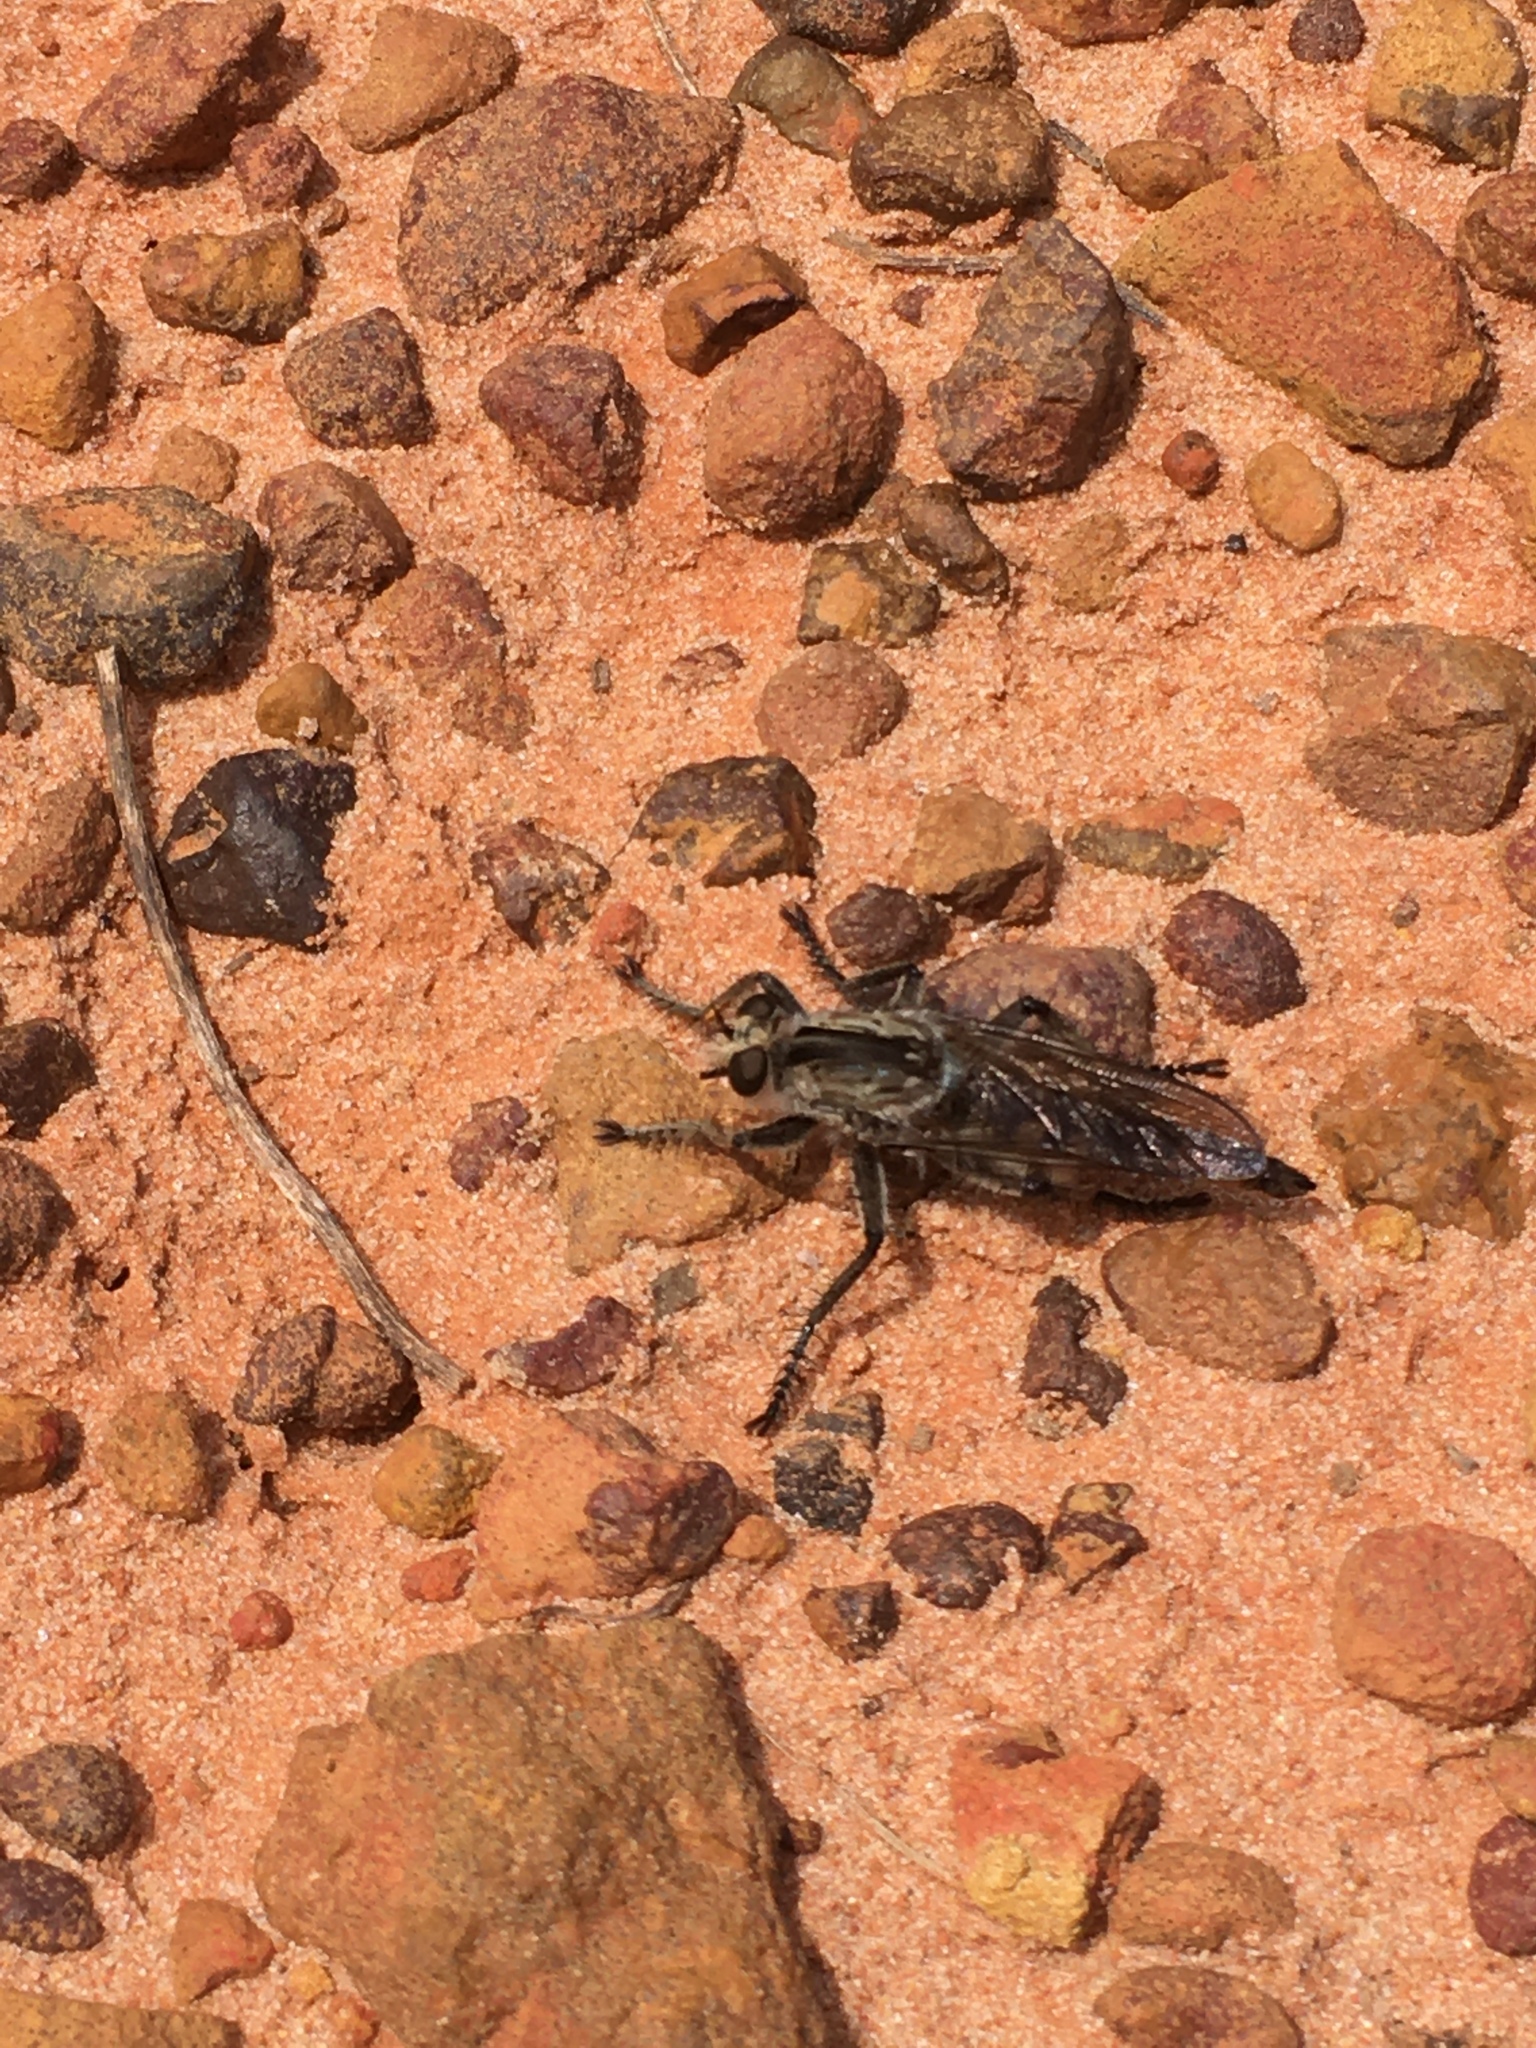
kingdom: Animalia
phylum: Arthropoda
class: Insecta
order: Diptera
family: Asilidae
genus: Triorla
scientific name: Triorla interrupta
